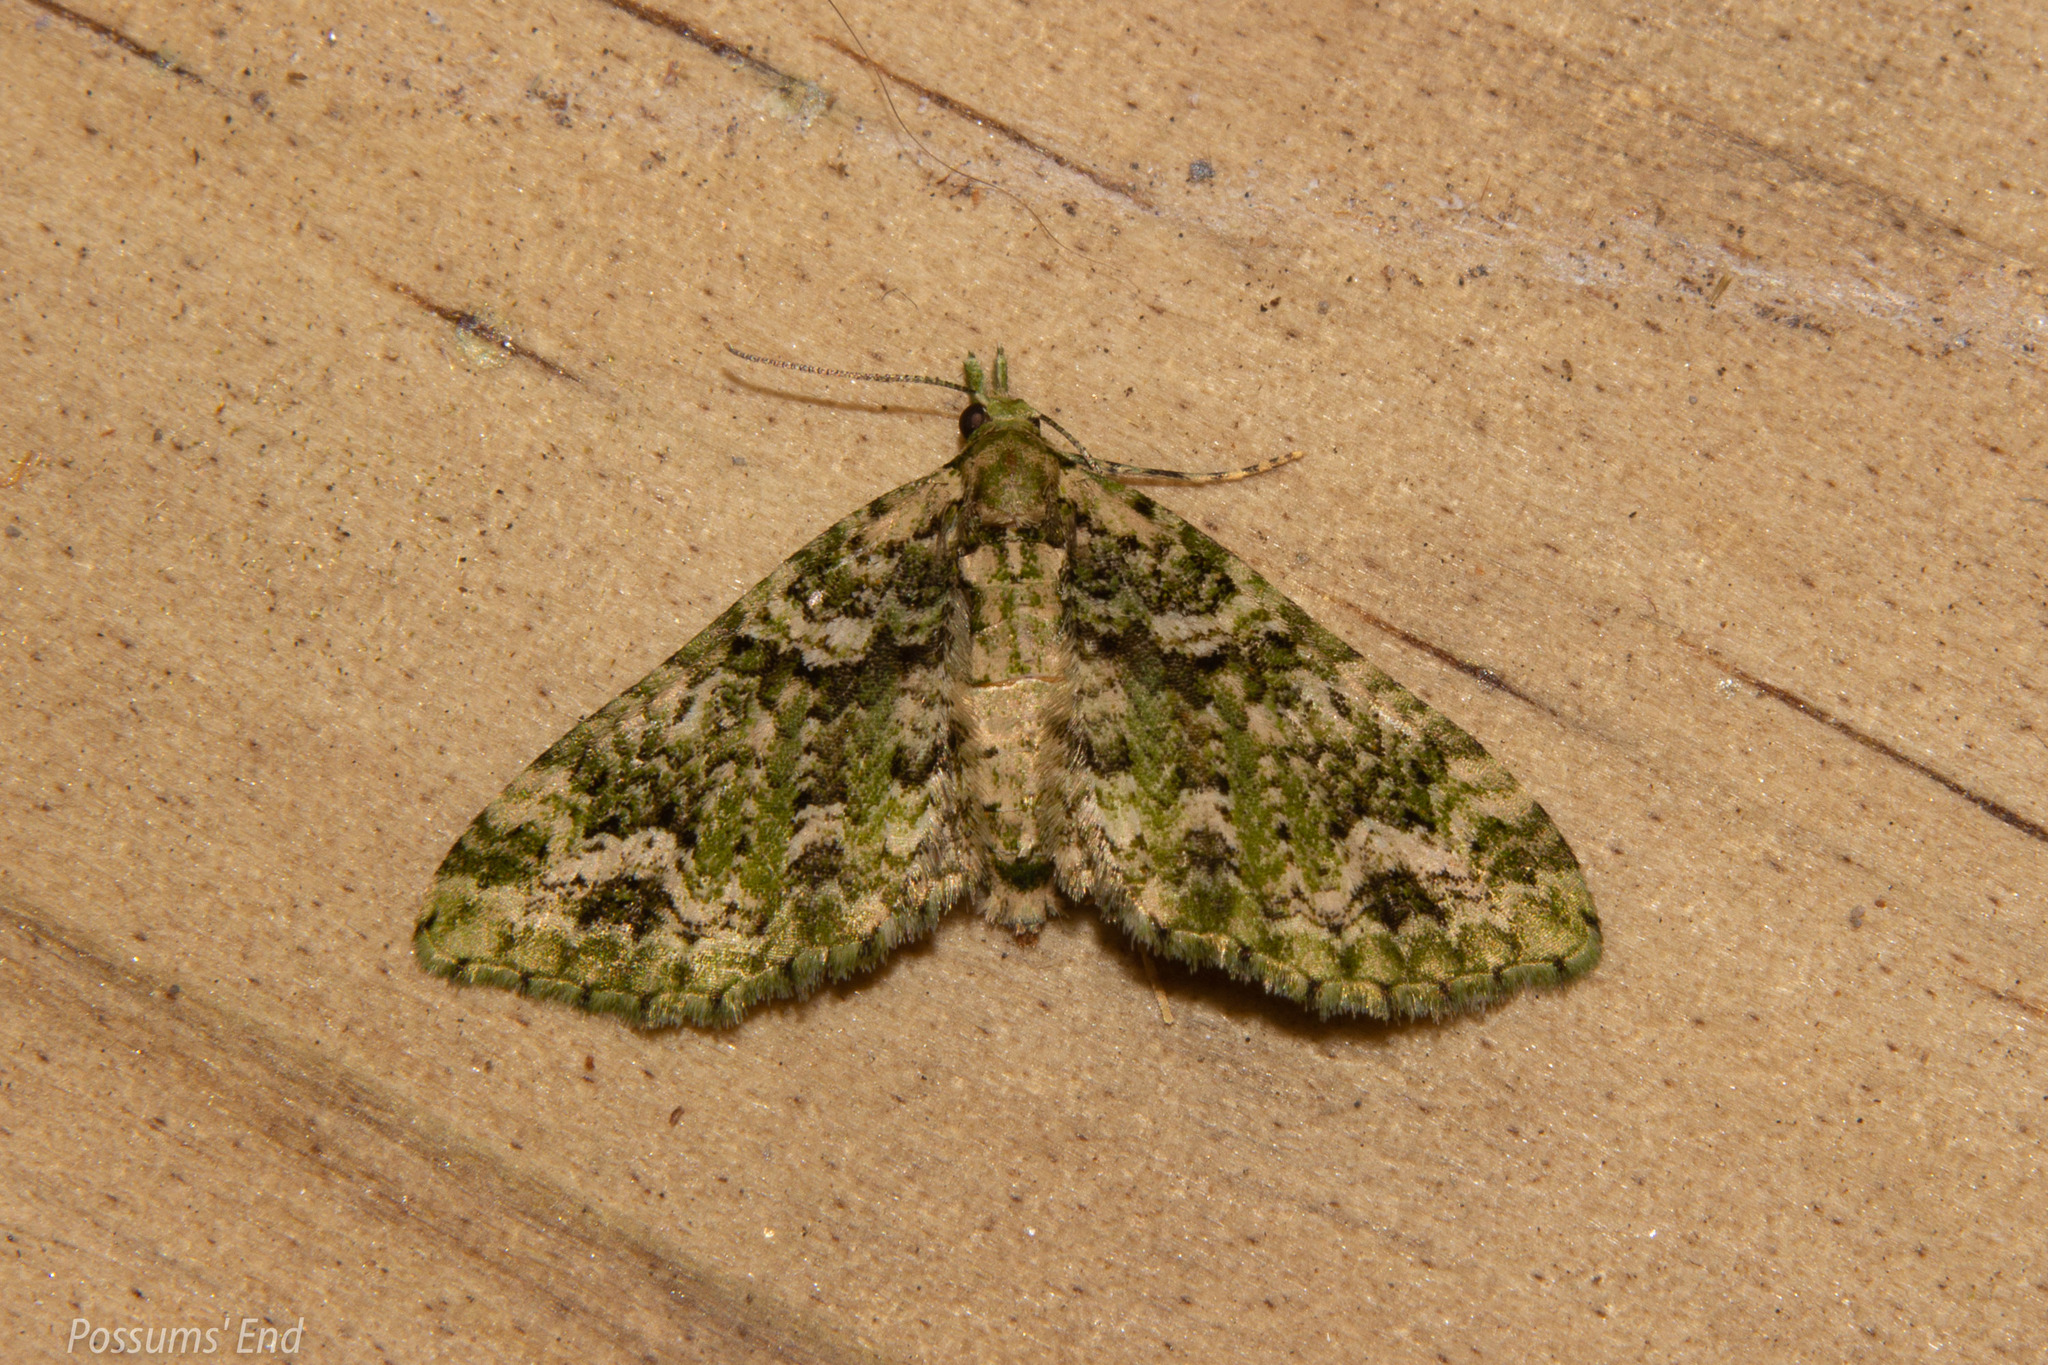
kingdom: Animalia
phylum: Arthropoda
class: Insecta
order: Lepidoptera
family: Geometridae
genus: Pasiphila
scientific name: Pasiphila muscosata
